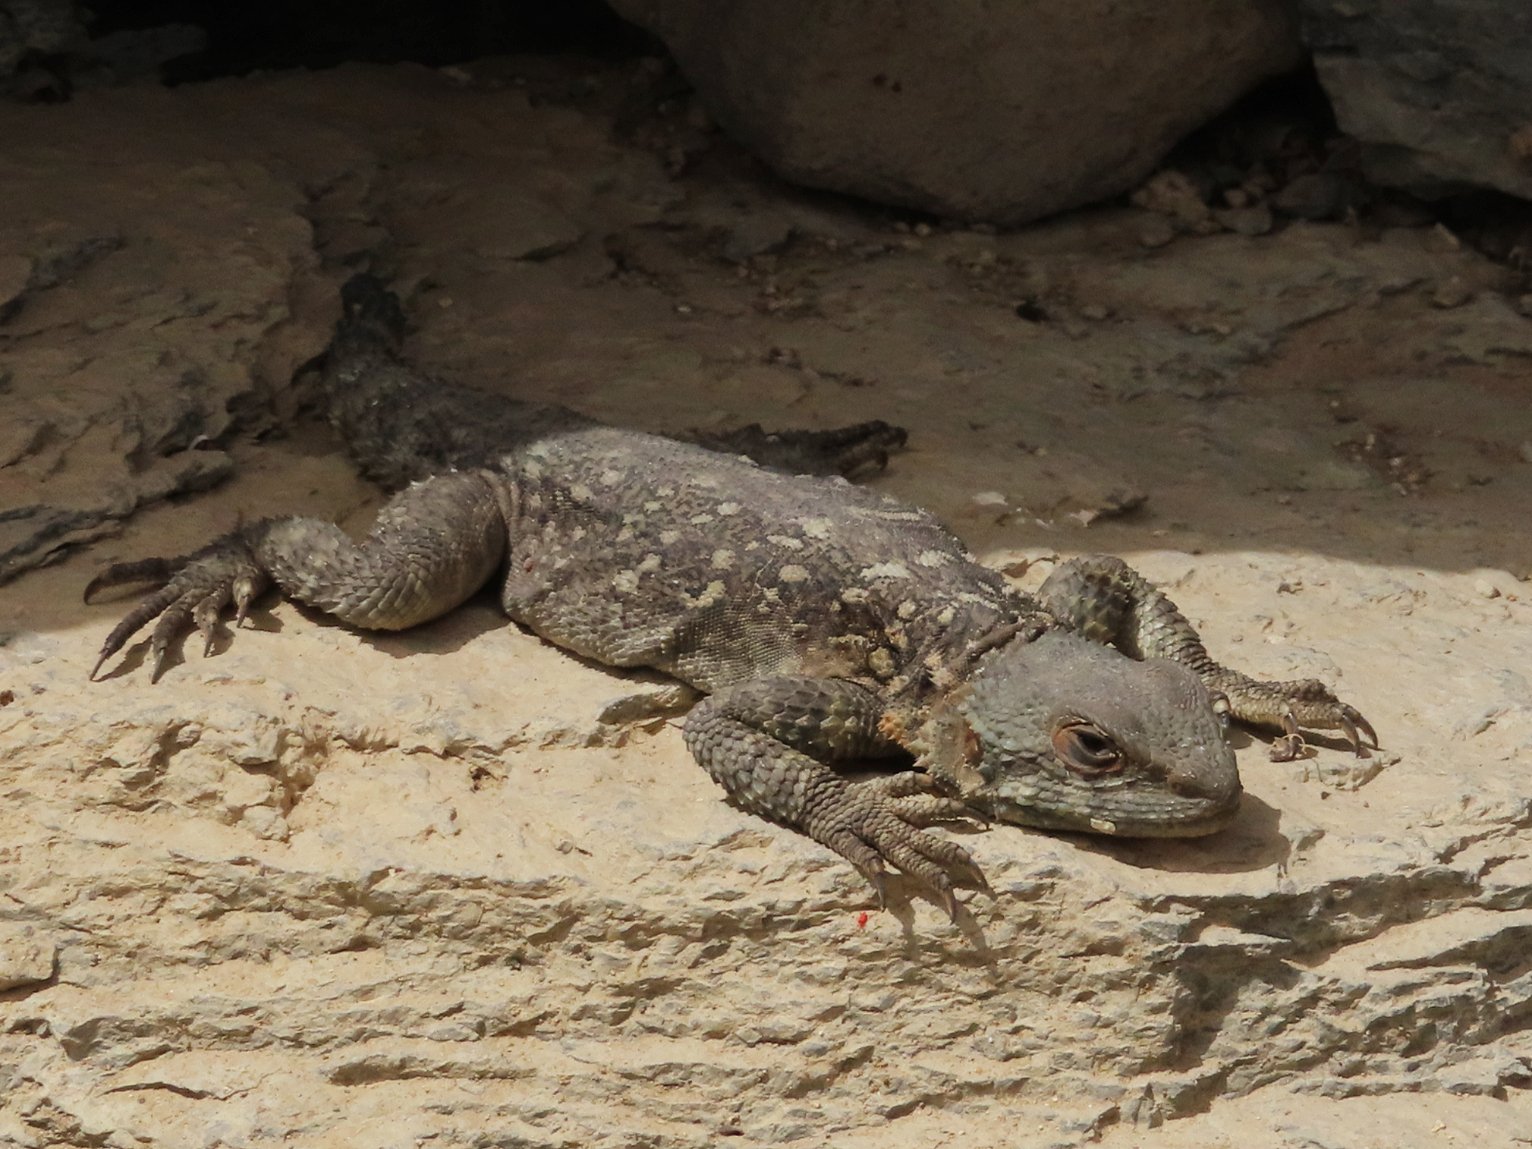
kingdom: Animalia
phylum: Chordata
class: Squamata
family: Agamidae
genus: Paralaudakia
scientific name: Paralaudakia caucasia
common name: Caucasian agama
